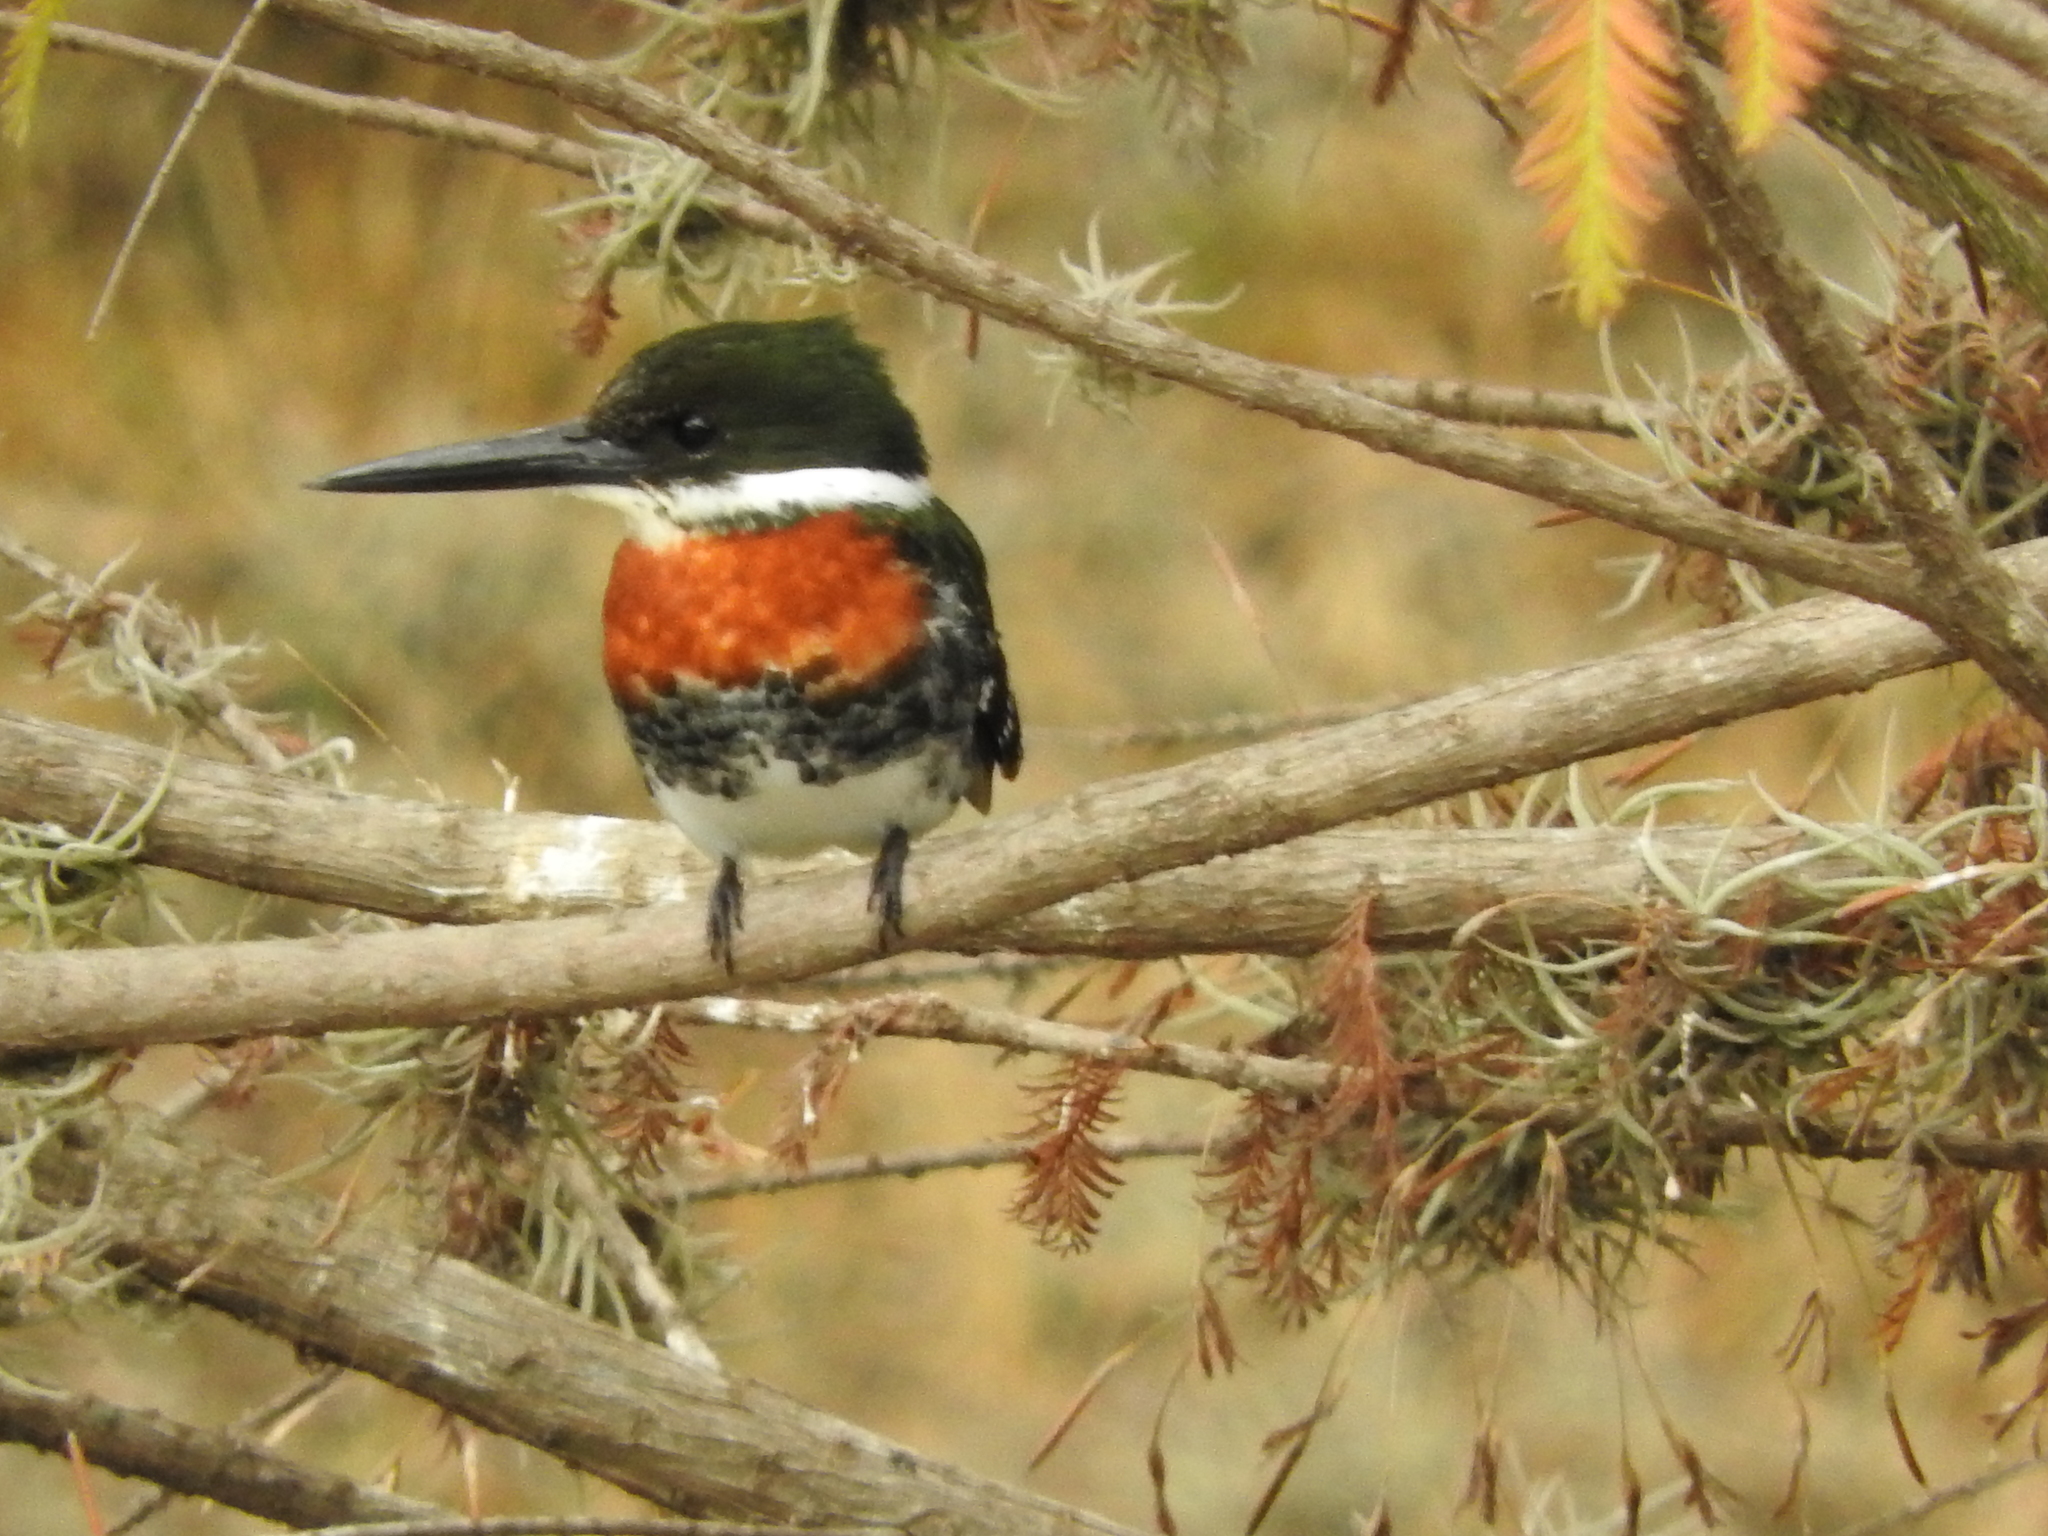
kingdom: Animalia
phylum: Chordata
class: Aves
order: Coraciiformes
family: Alcedinidae
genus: Chloroceryle
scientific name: Chloroceryle americana
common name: Green kingfisher
